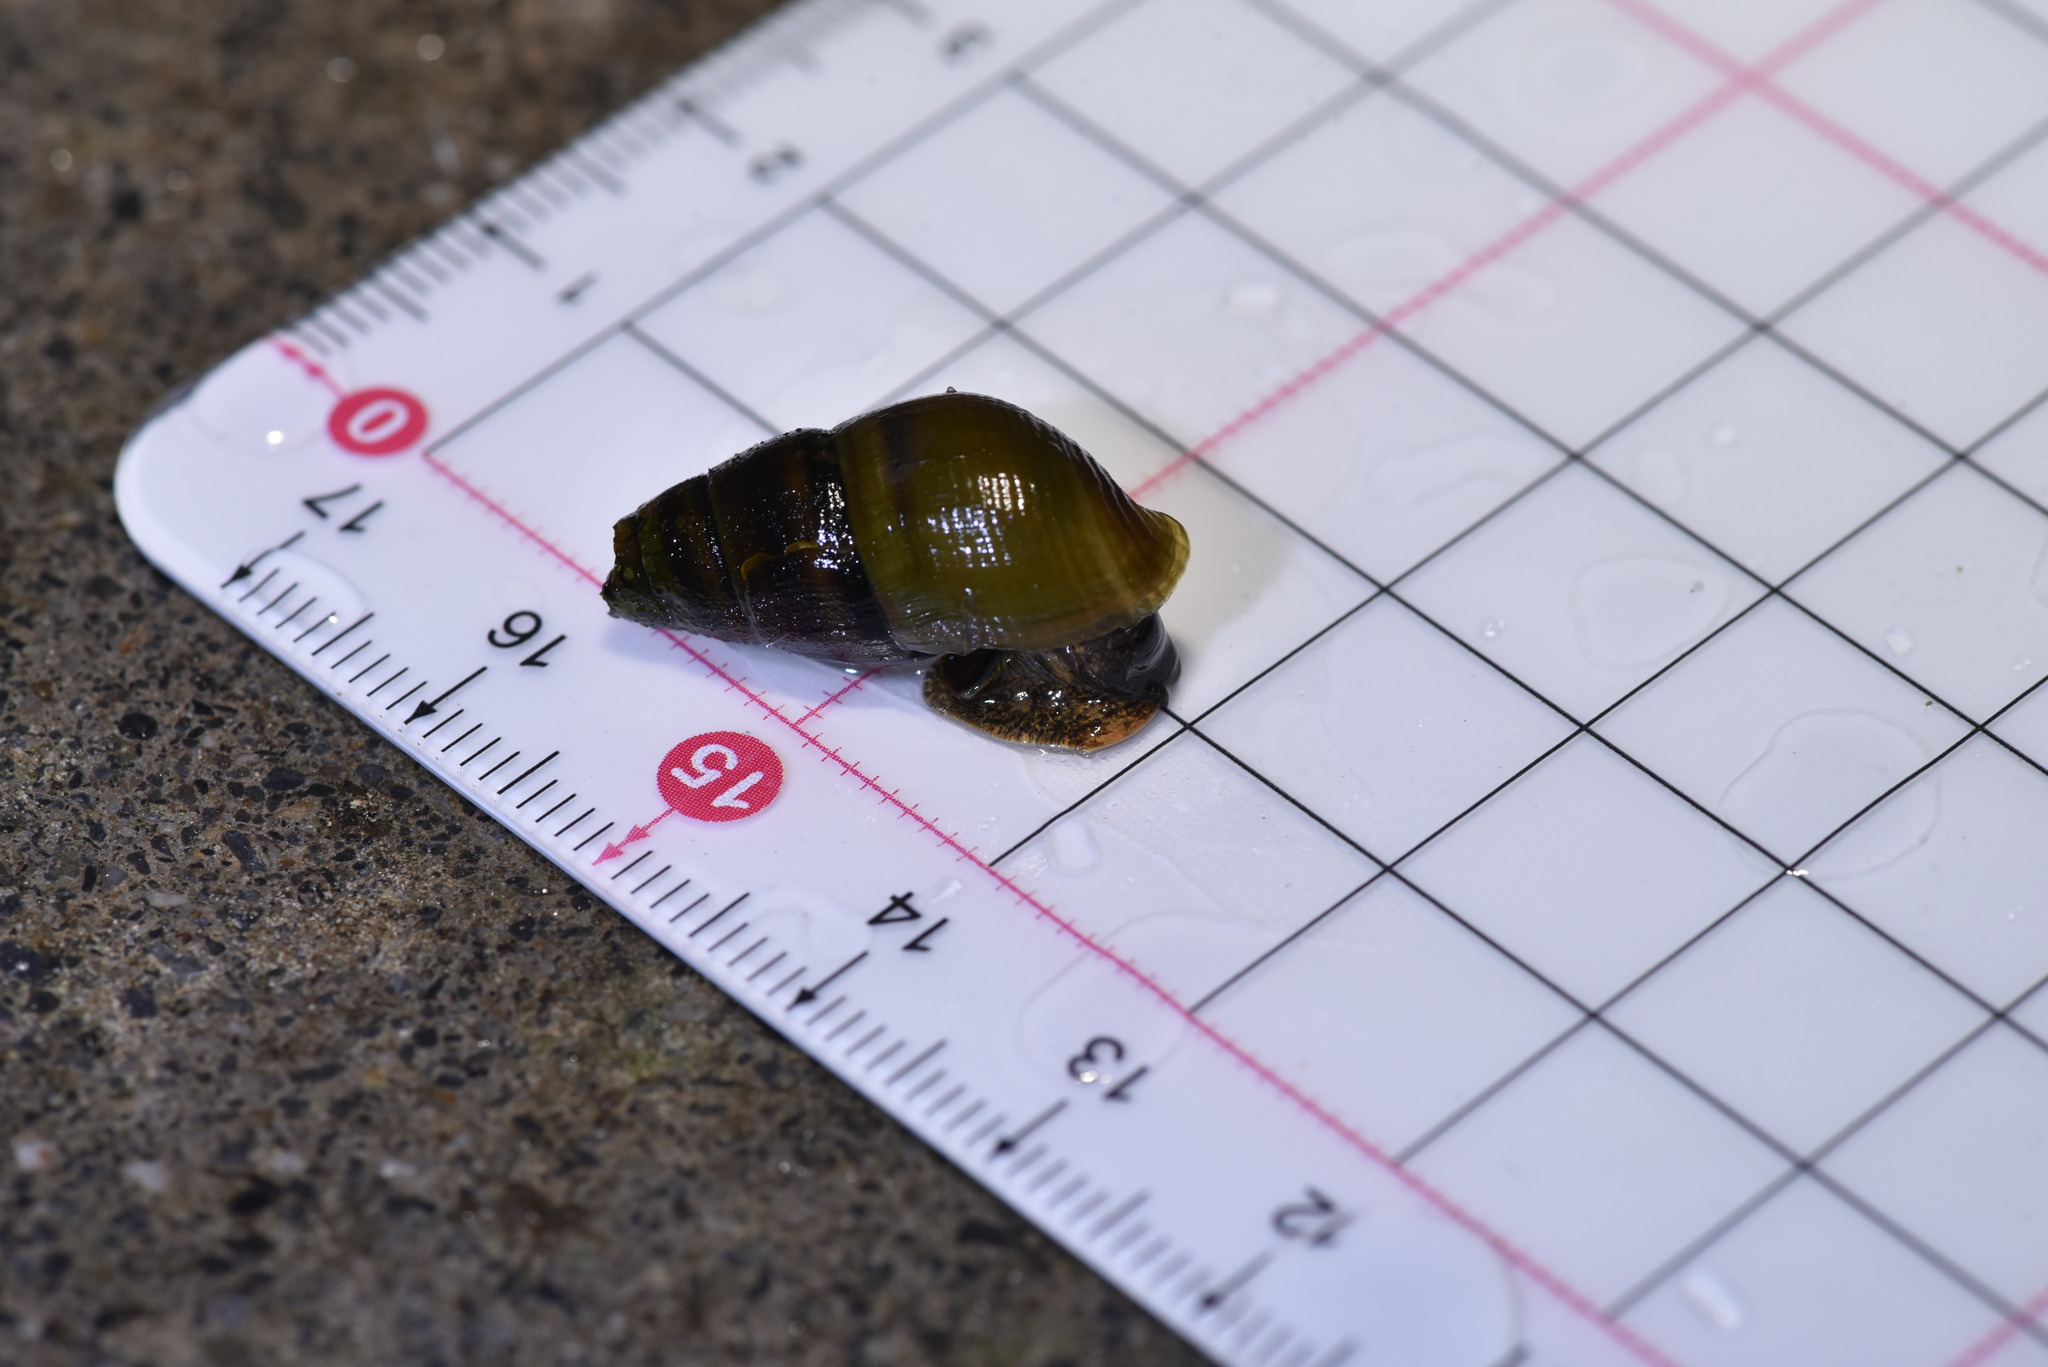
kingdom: Animalia
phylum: Mollusca
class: Gastropoda
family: Semisulcospiridae
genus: Semisulcospira
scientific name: Semisulcospira libertina
